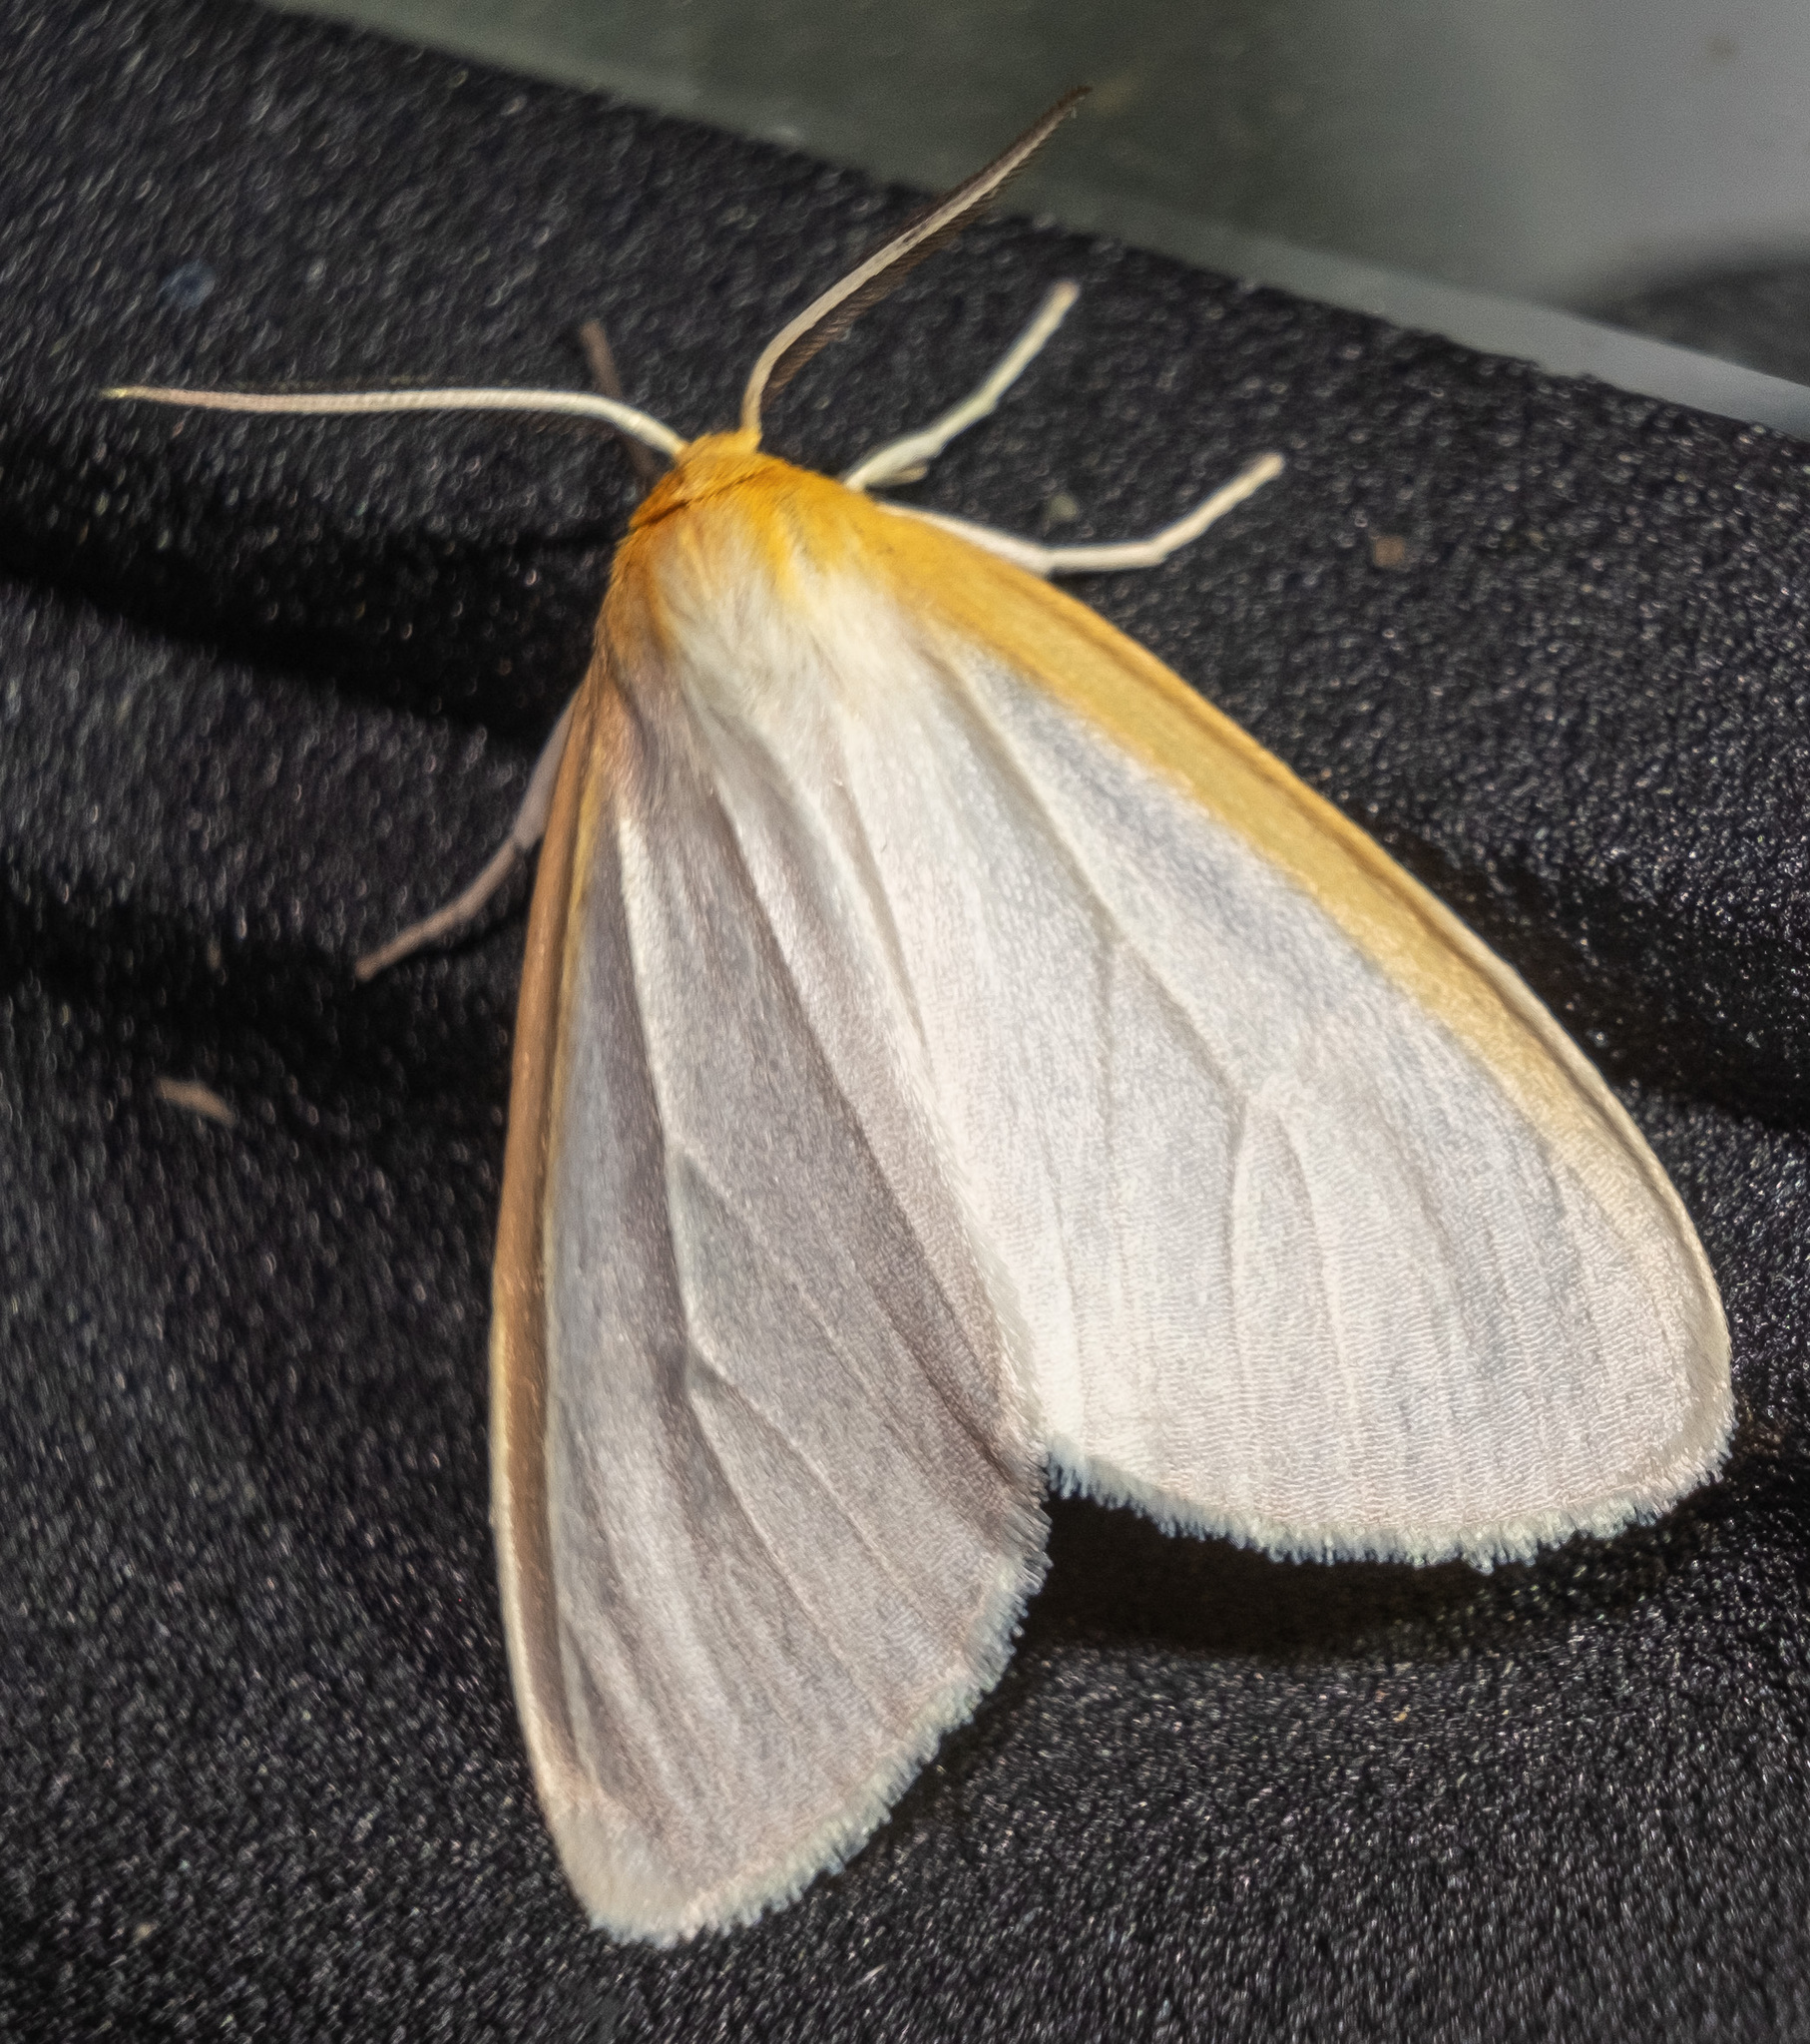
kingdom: Animalia
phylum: Arthropoda
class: Insecta
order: Lepidoptera
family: Erebidae
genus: Cycnia
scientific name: Cycnia tenera
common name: Delicate cycnia moth
